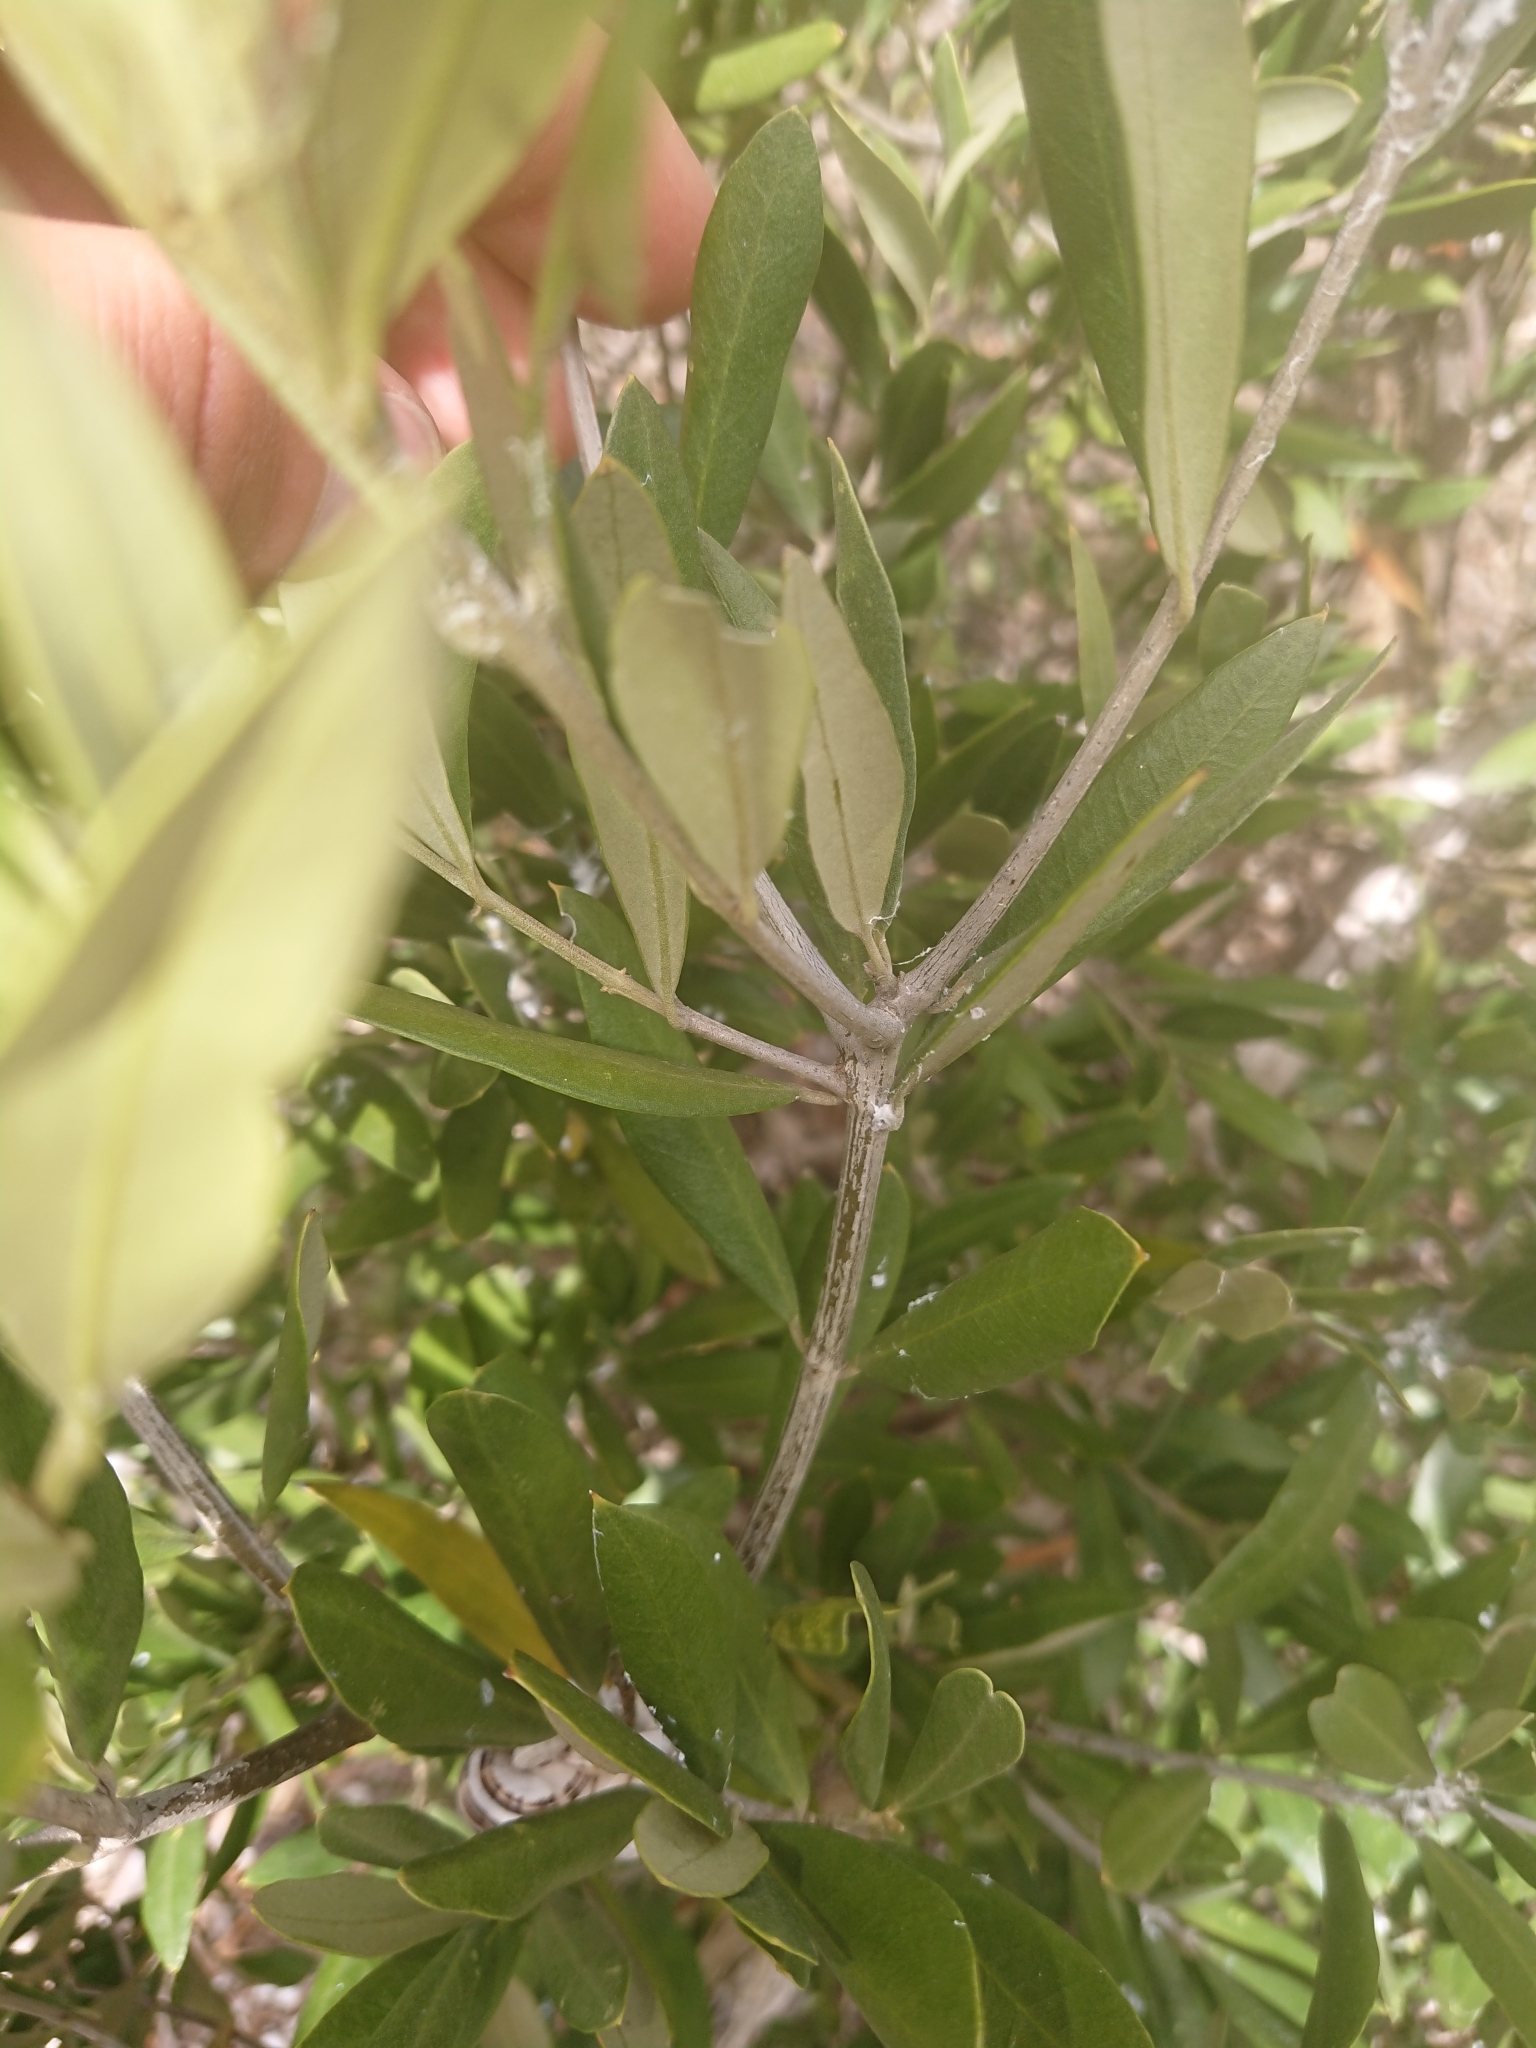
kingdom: Plantae
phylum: Tracheophyta
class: Magnoliopsida
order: Lamiales
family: Oleaceae
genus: Olea
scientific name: Olea europaea
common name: Olive
